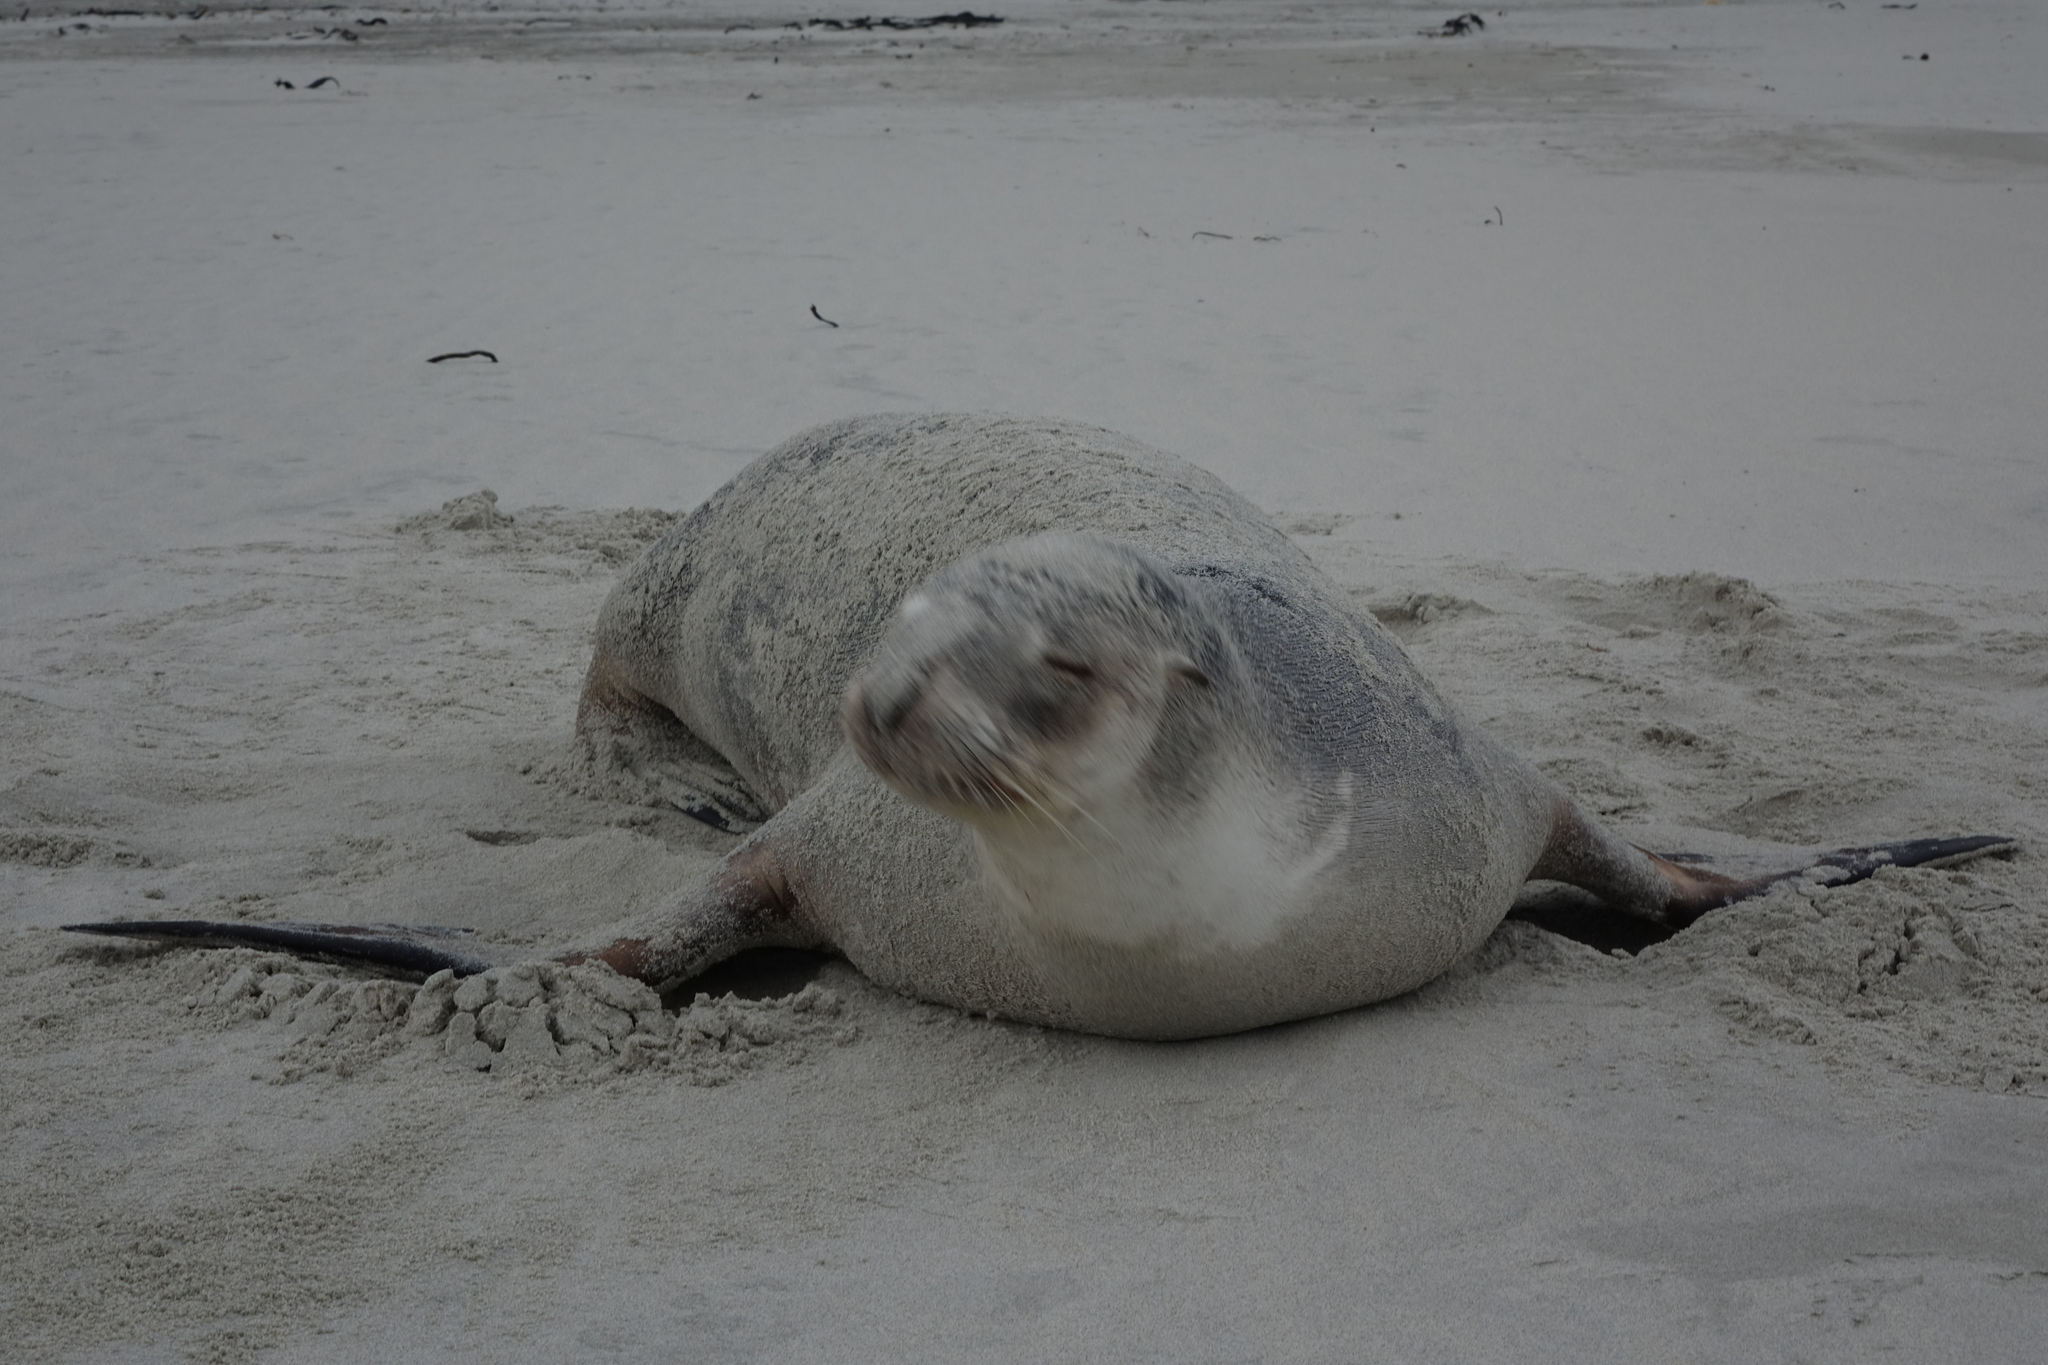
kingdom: Animalia
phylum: Chordata
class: Mammalia
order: Carnivora
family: Otariidae
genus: Phocarctos
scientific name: Phocarctos hookeri
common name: New zealand sea lion
